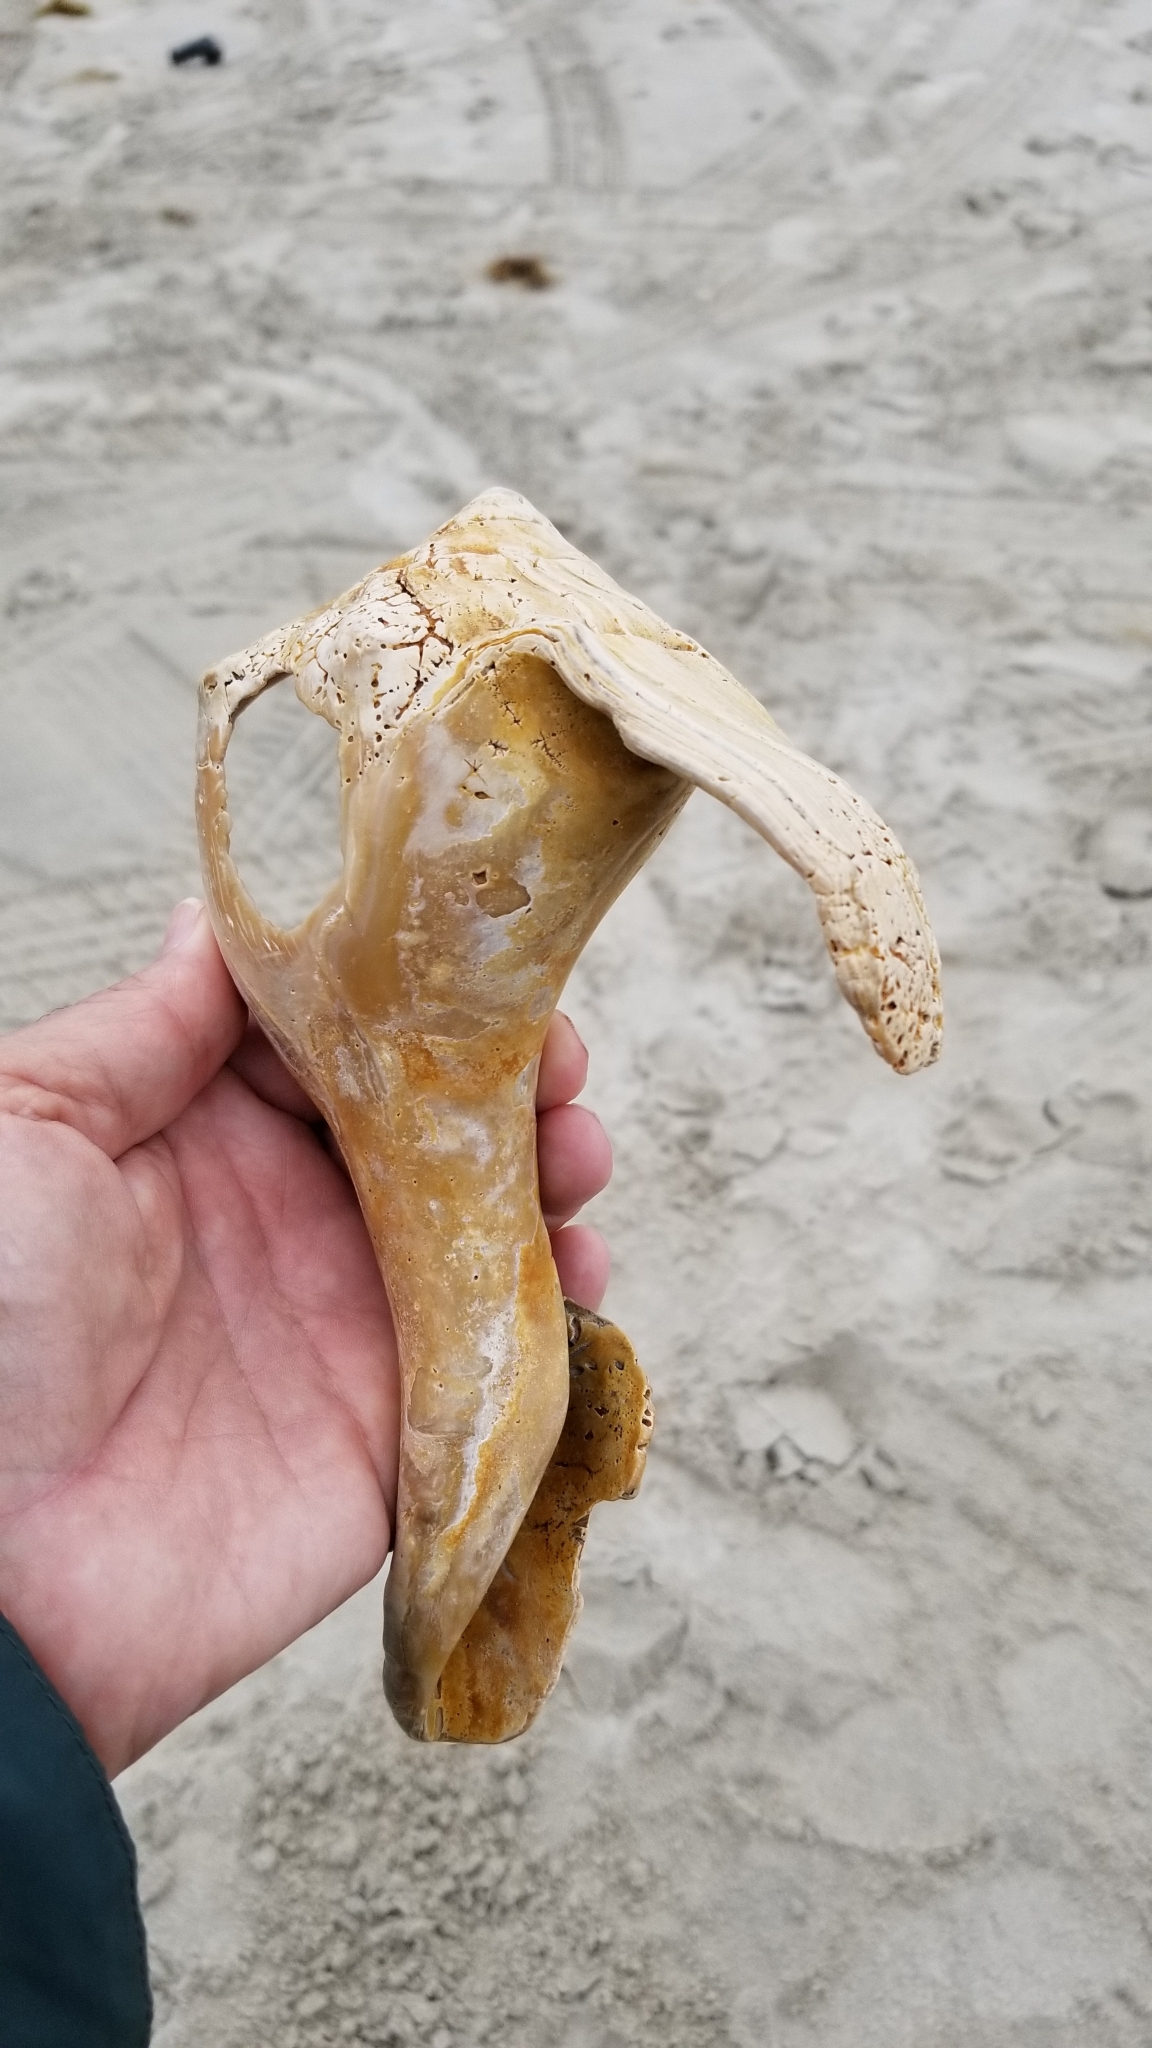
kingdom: Animalia
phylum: Mollusca
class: Gastropoda
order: Neogastropoda
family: Busyconidae
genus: Busycon
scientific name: Busycon carica
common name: Knobbed whelk
